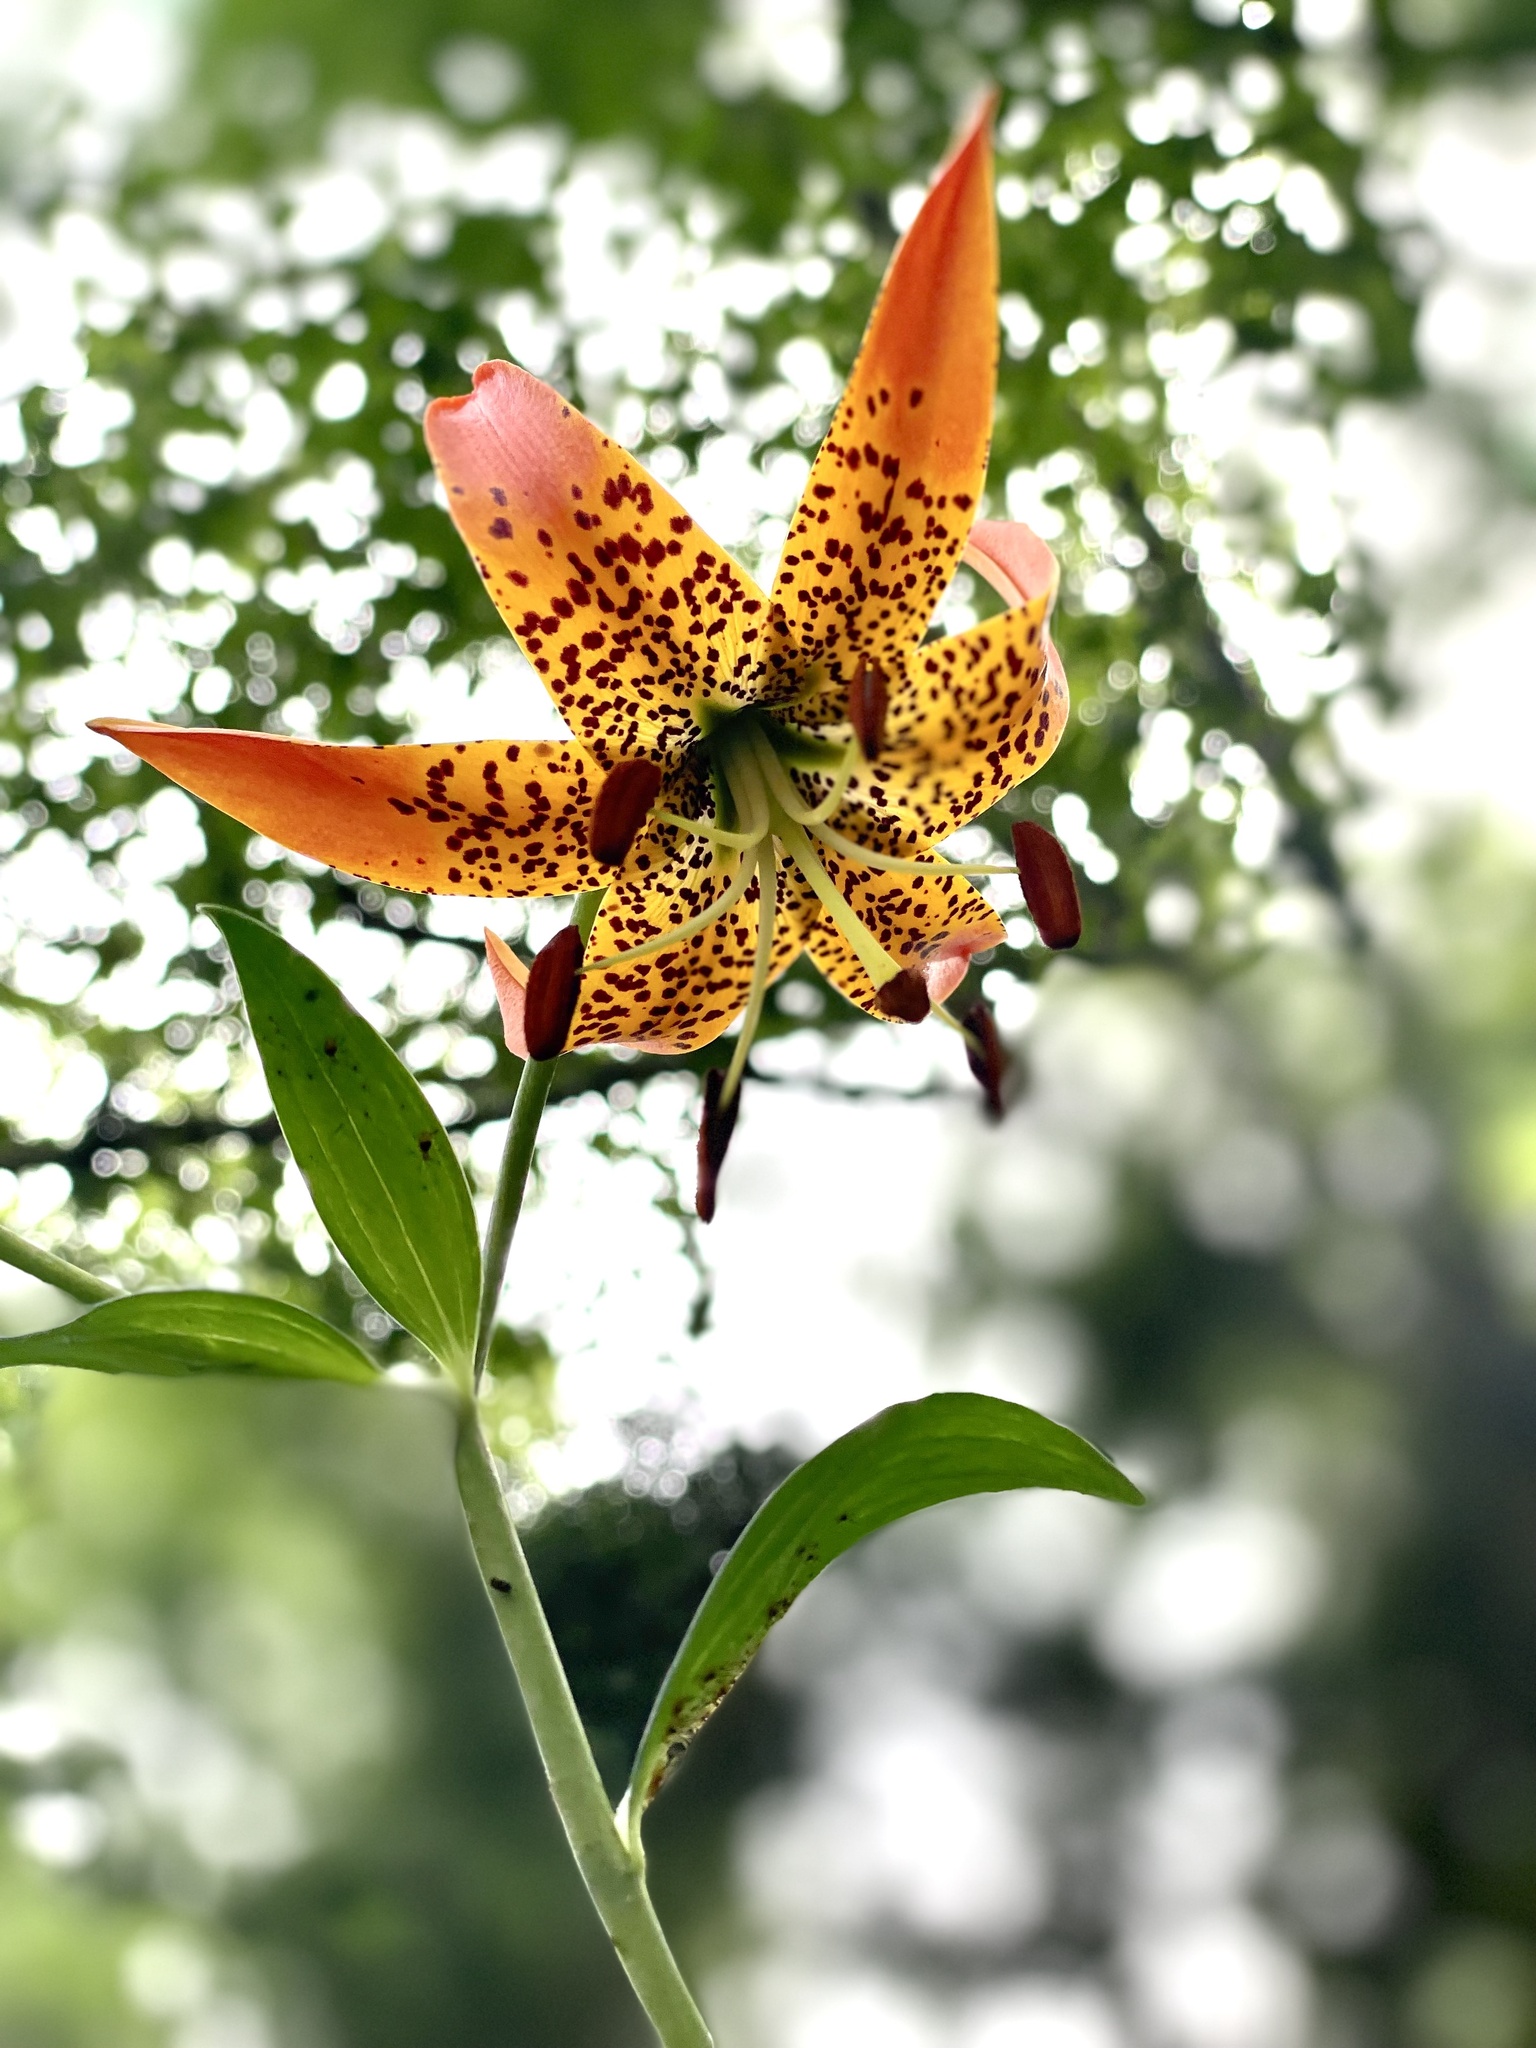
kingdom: Plantae
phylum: Tracheophyta
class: Liliopsida
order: Liliales
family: Liliaceae
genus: Lilium
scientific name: Lilium superbum
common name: American turk's-cap lily
